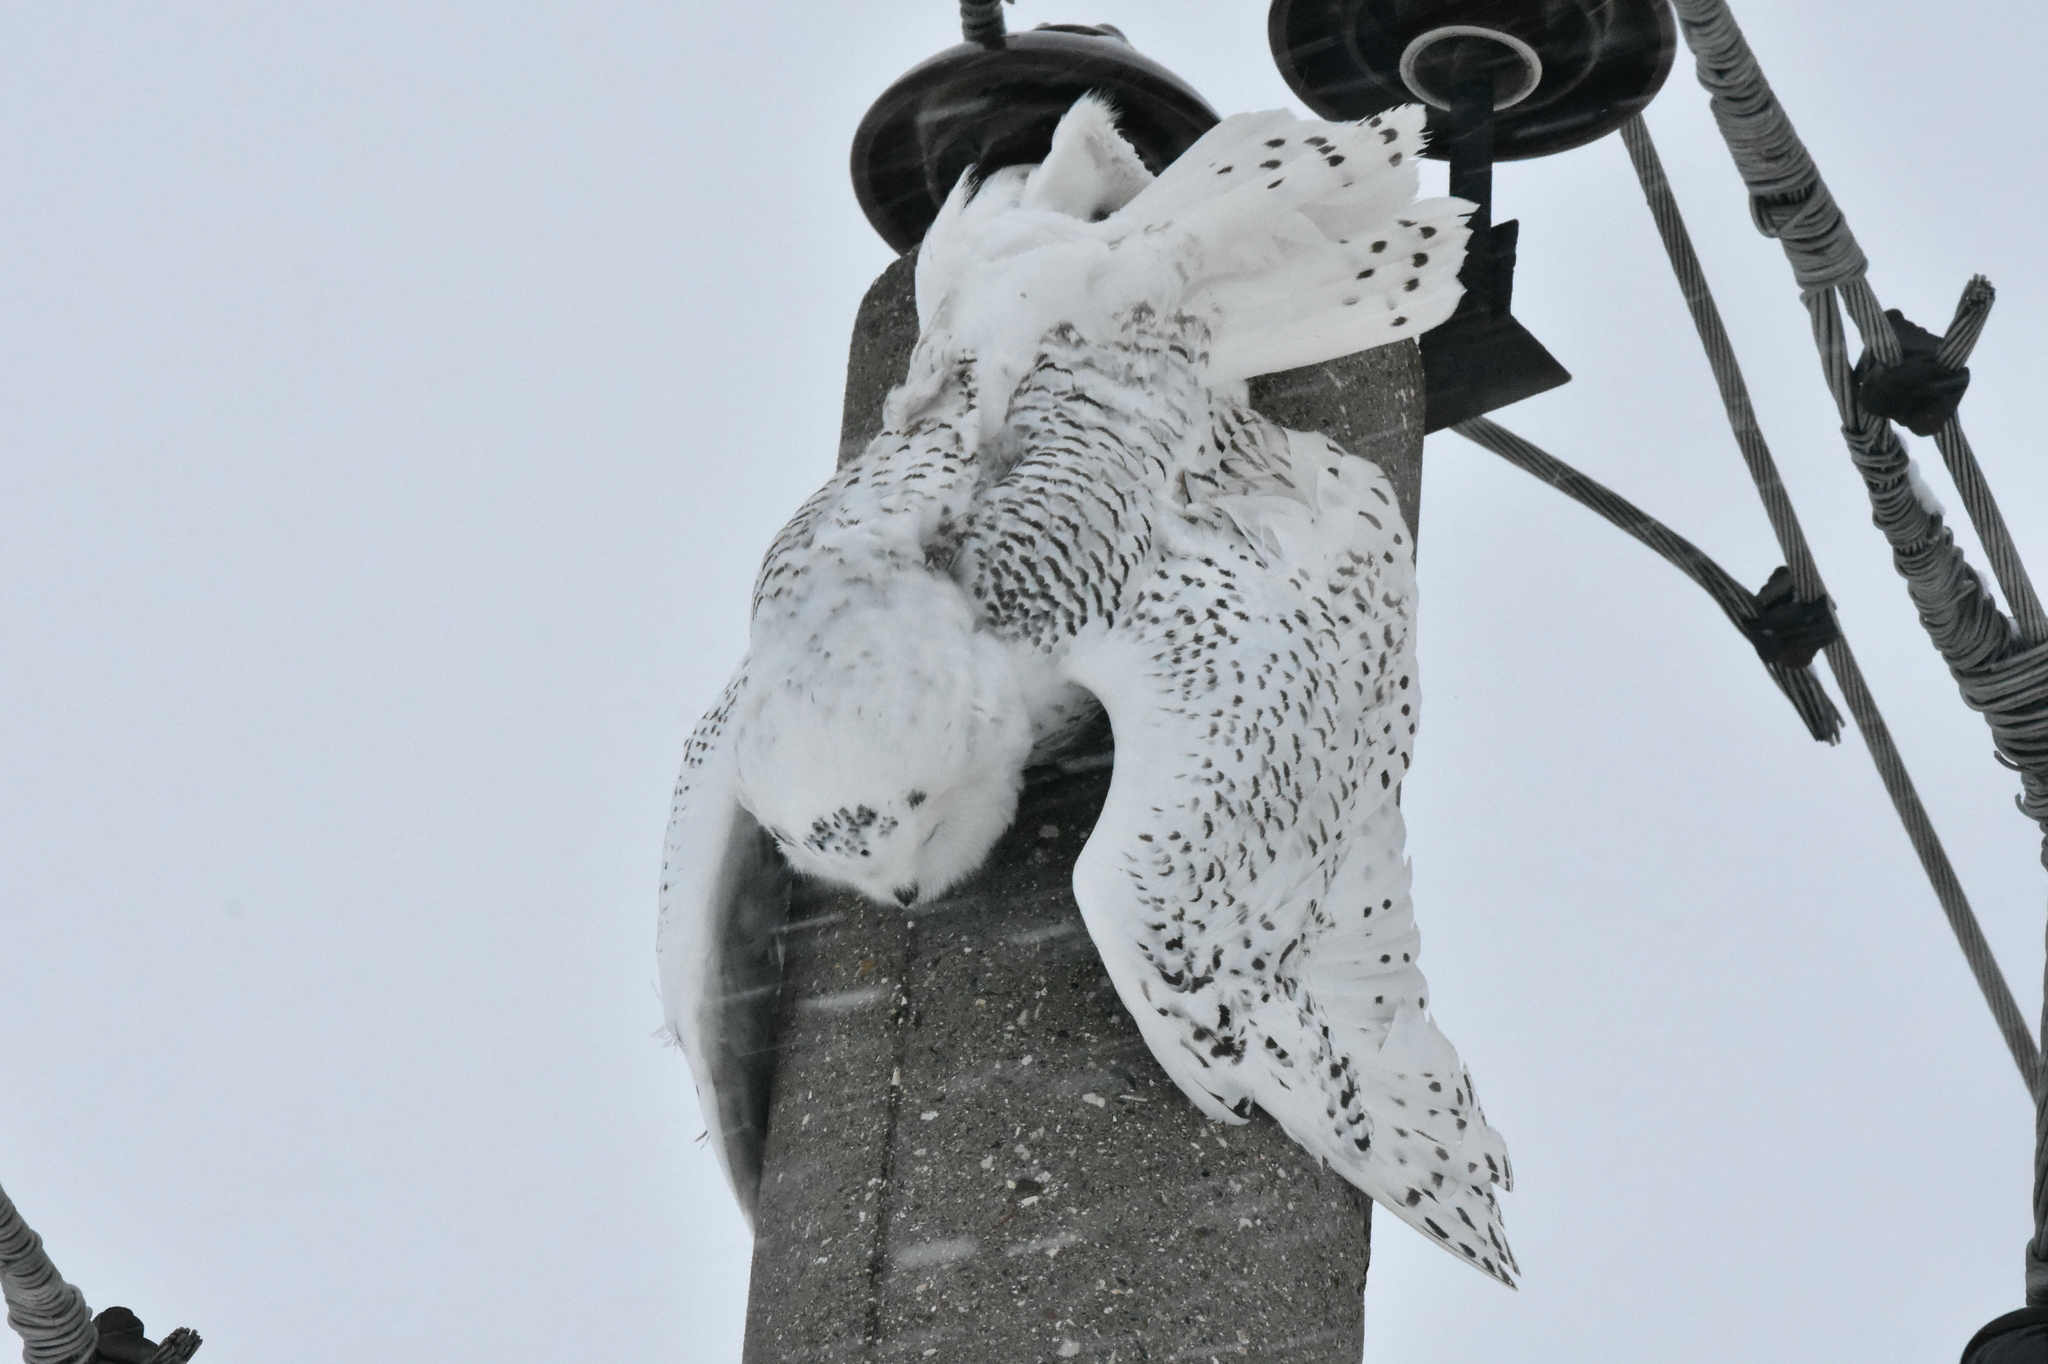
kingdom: Animalia
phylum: Chordata
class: Aves
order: Strigiformes
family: Strigidae
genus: Bubo
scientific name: Bubo scandiacus
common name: Snowy owl
